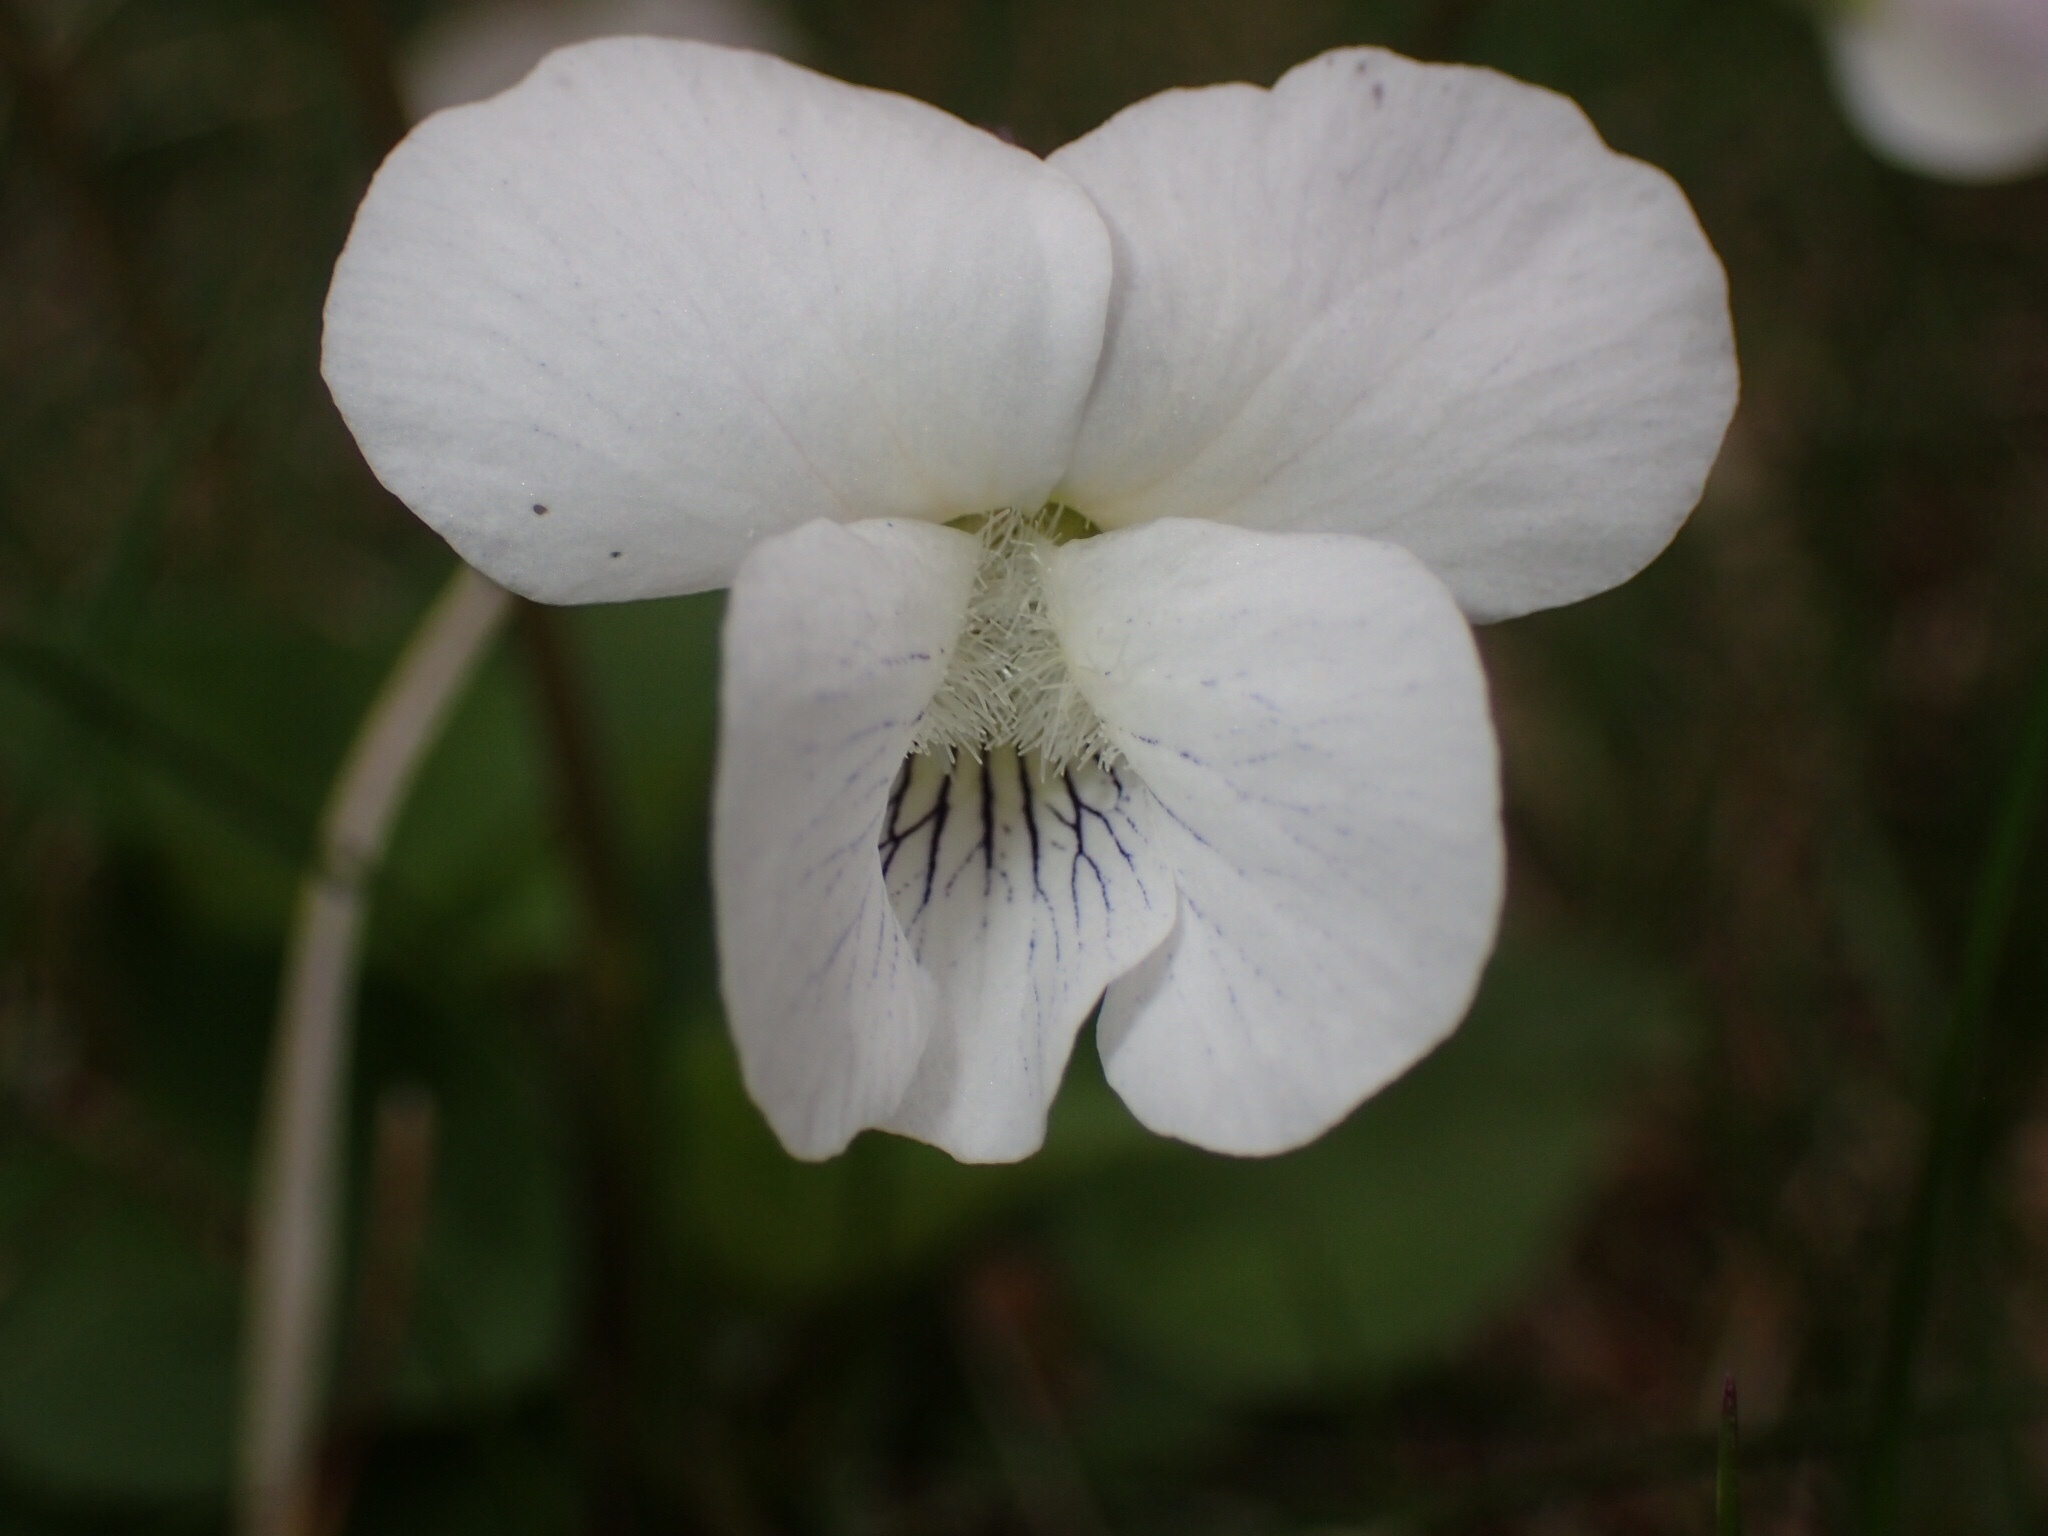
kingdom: Plantae
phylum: Tracheophyta
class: Magnoliopsida
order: Malpighiales
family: Violaceae
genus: Viola
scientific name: Viola sororia
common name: Dooryard violet
